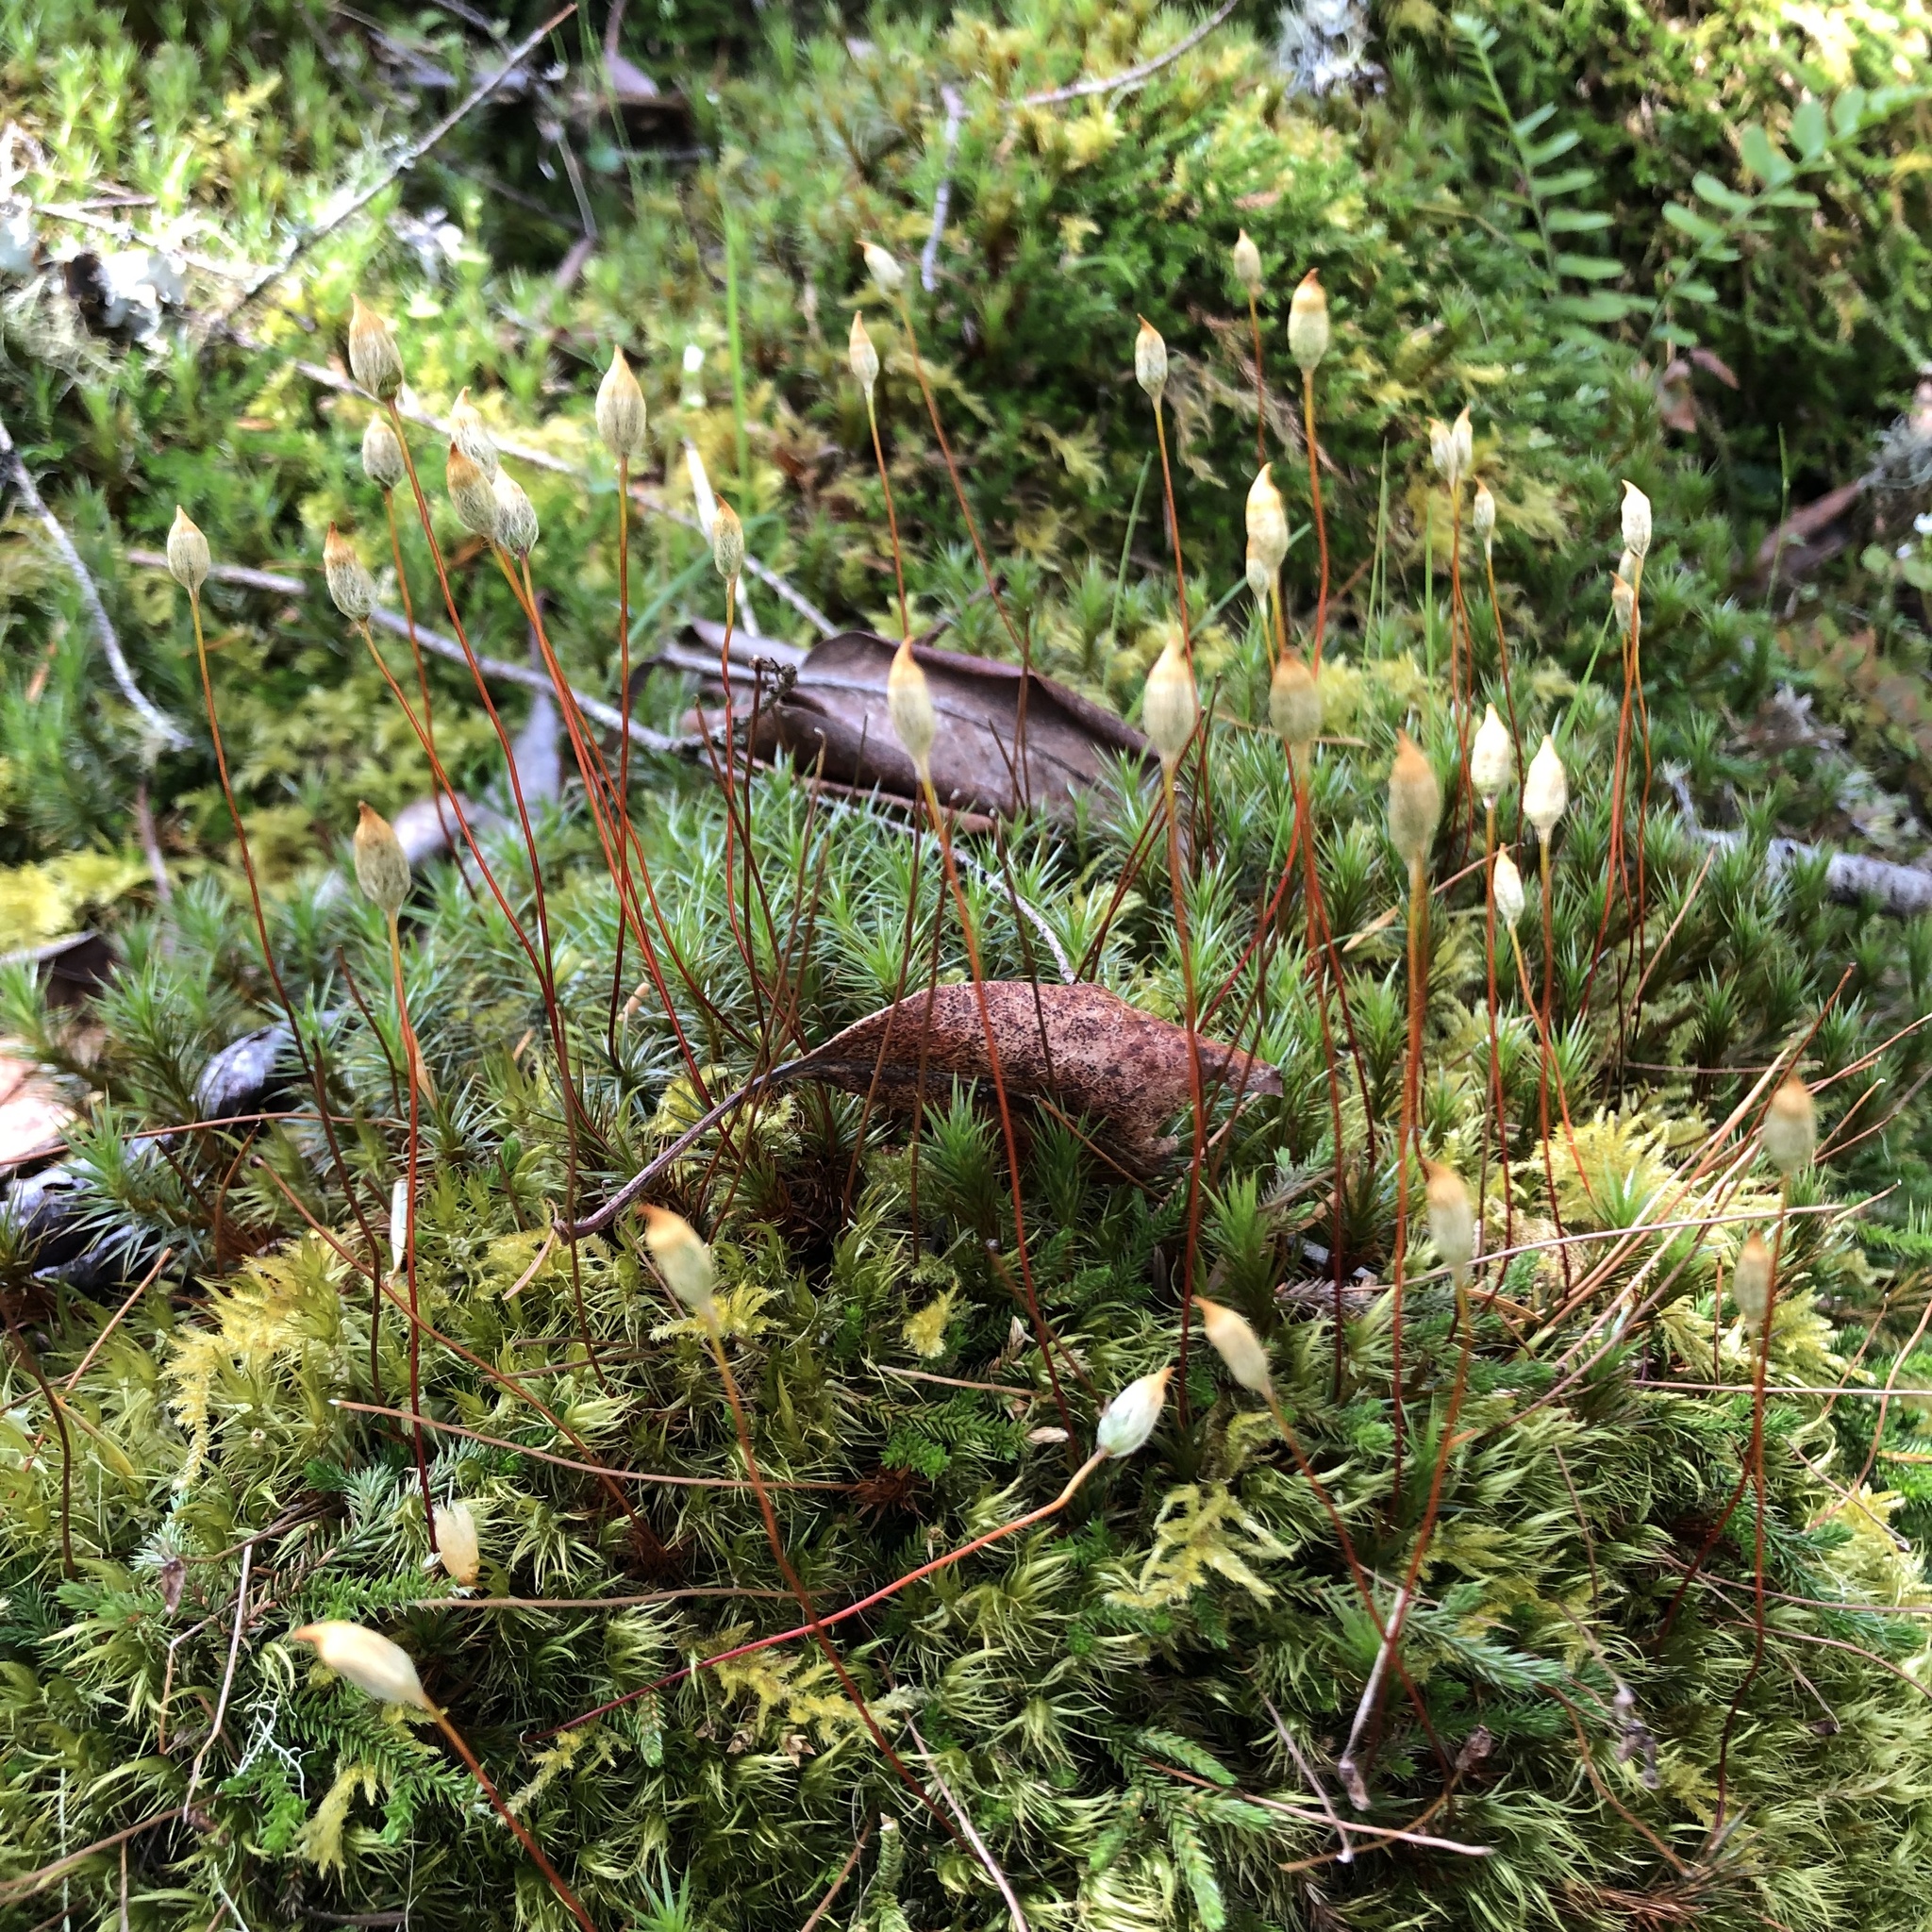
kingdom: Plantae
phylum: Bryophyta
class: Polytrichopsida
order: Polytrichales
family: Polytrichaceae
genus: Polytrichum
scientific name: Polytrichum juniperinum
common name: Juniper haircap moss
